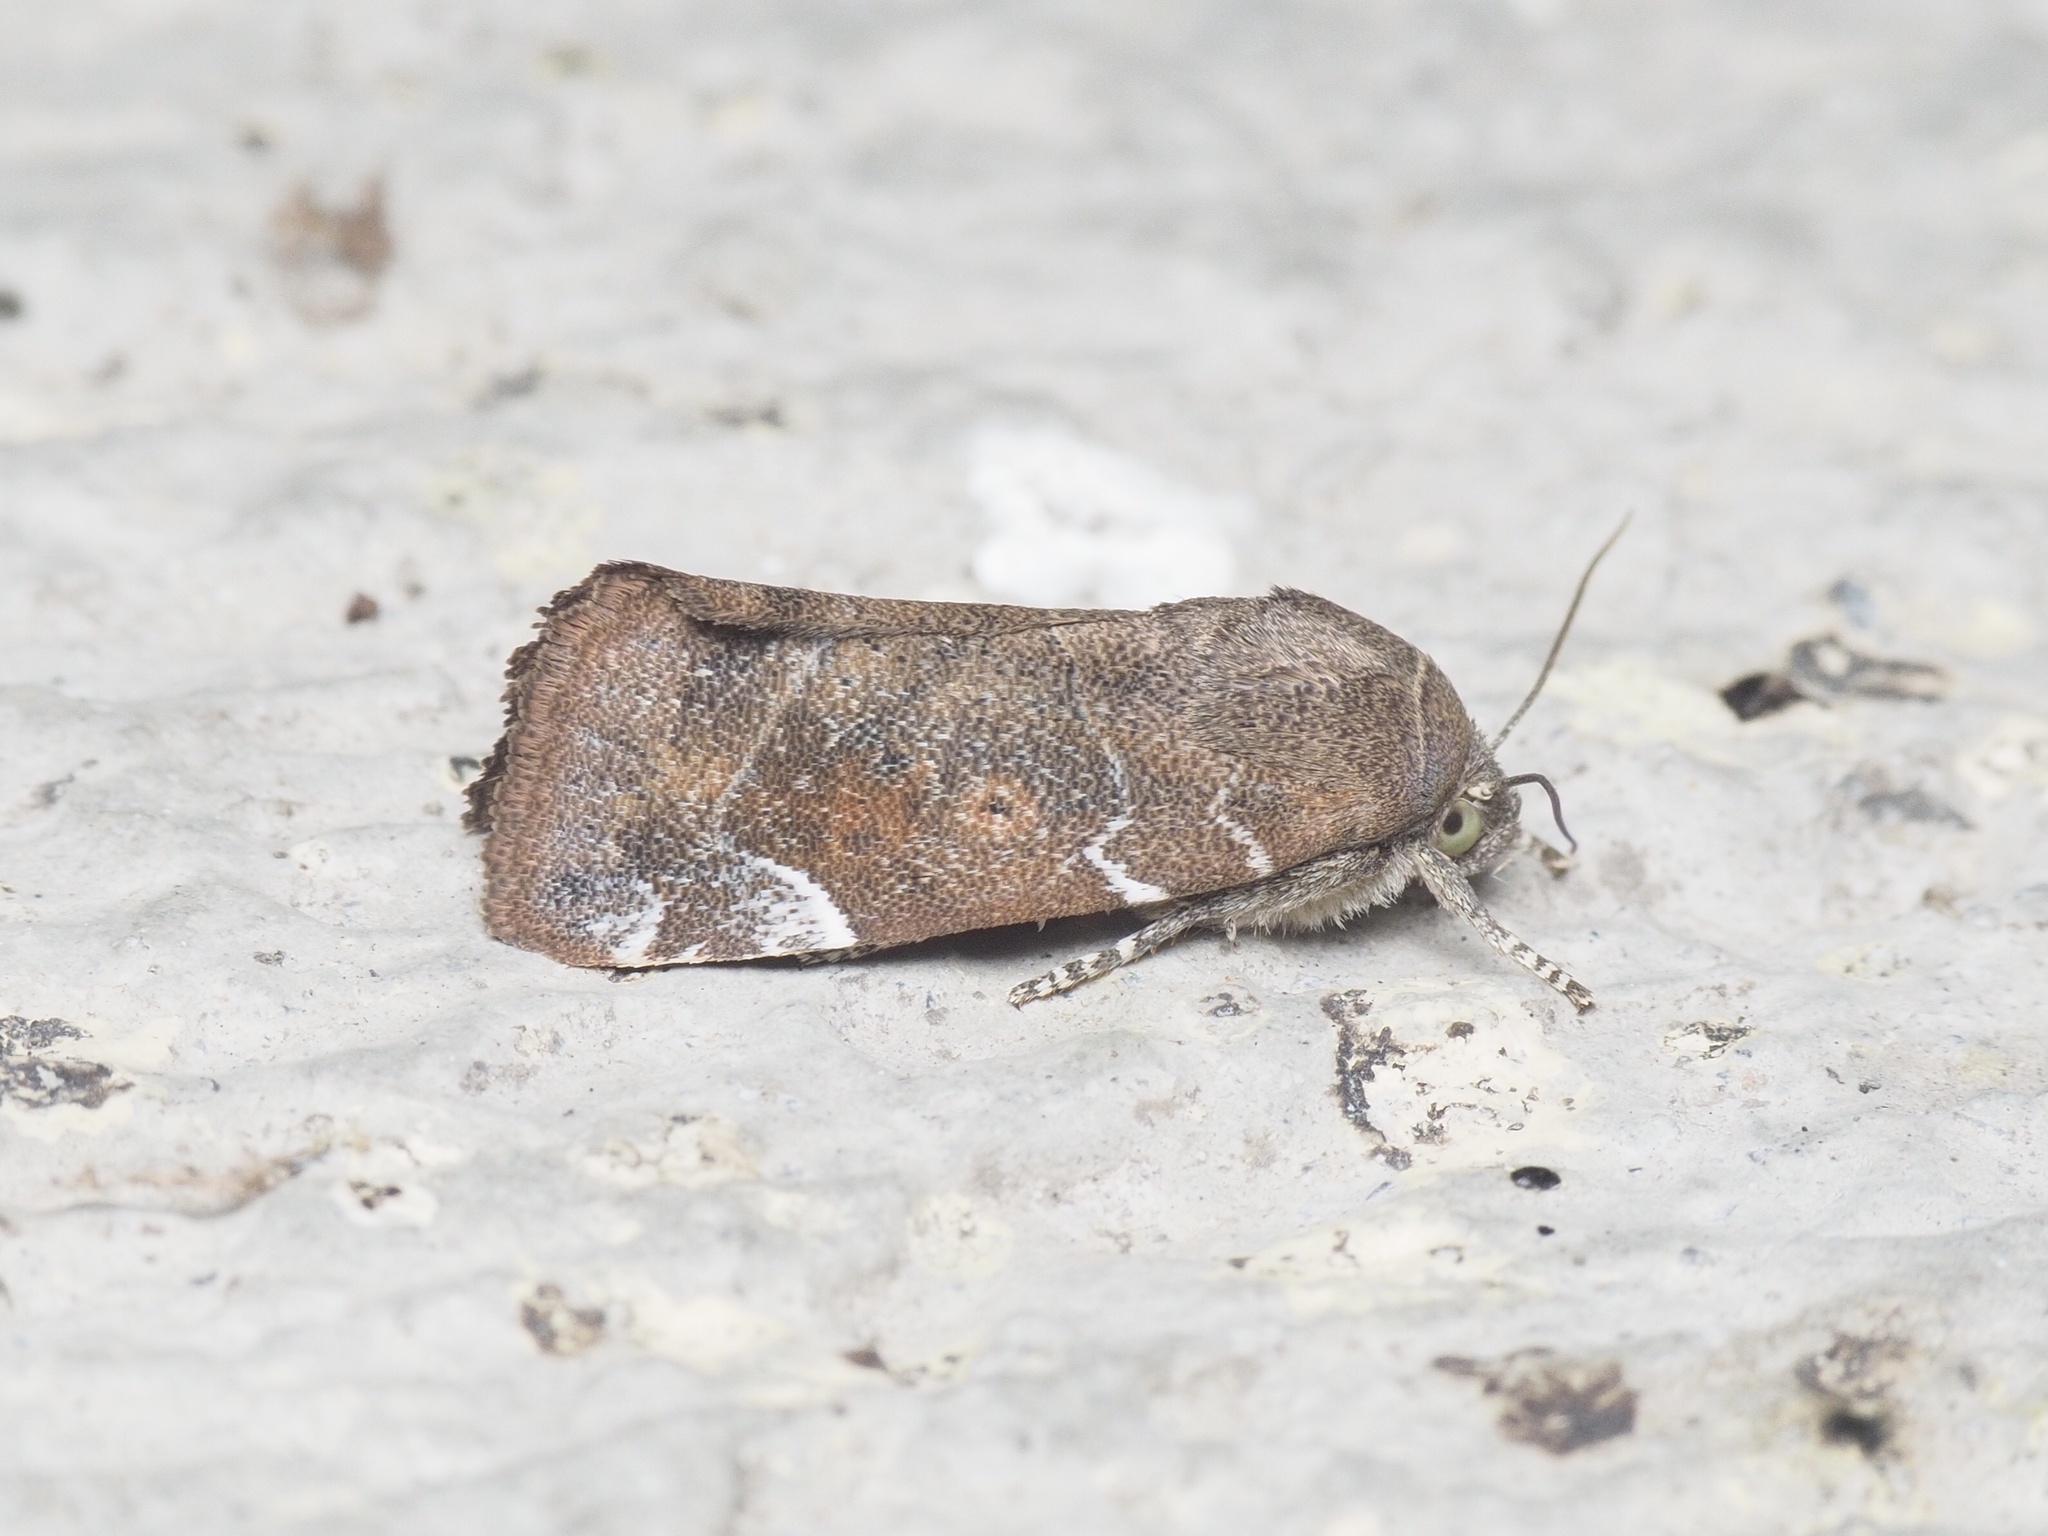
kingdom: Animalia
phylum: Arthropoda
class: Insecta
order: Lepidoptera
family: Noctuidae
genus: Cosmia
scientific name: Cosmia affinis
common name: Lesser-spotted pinion
